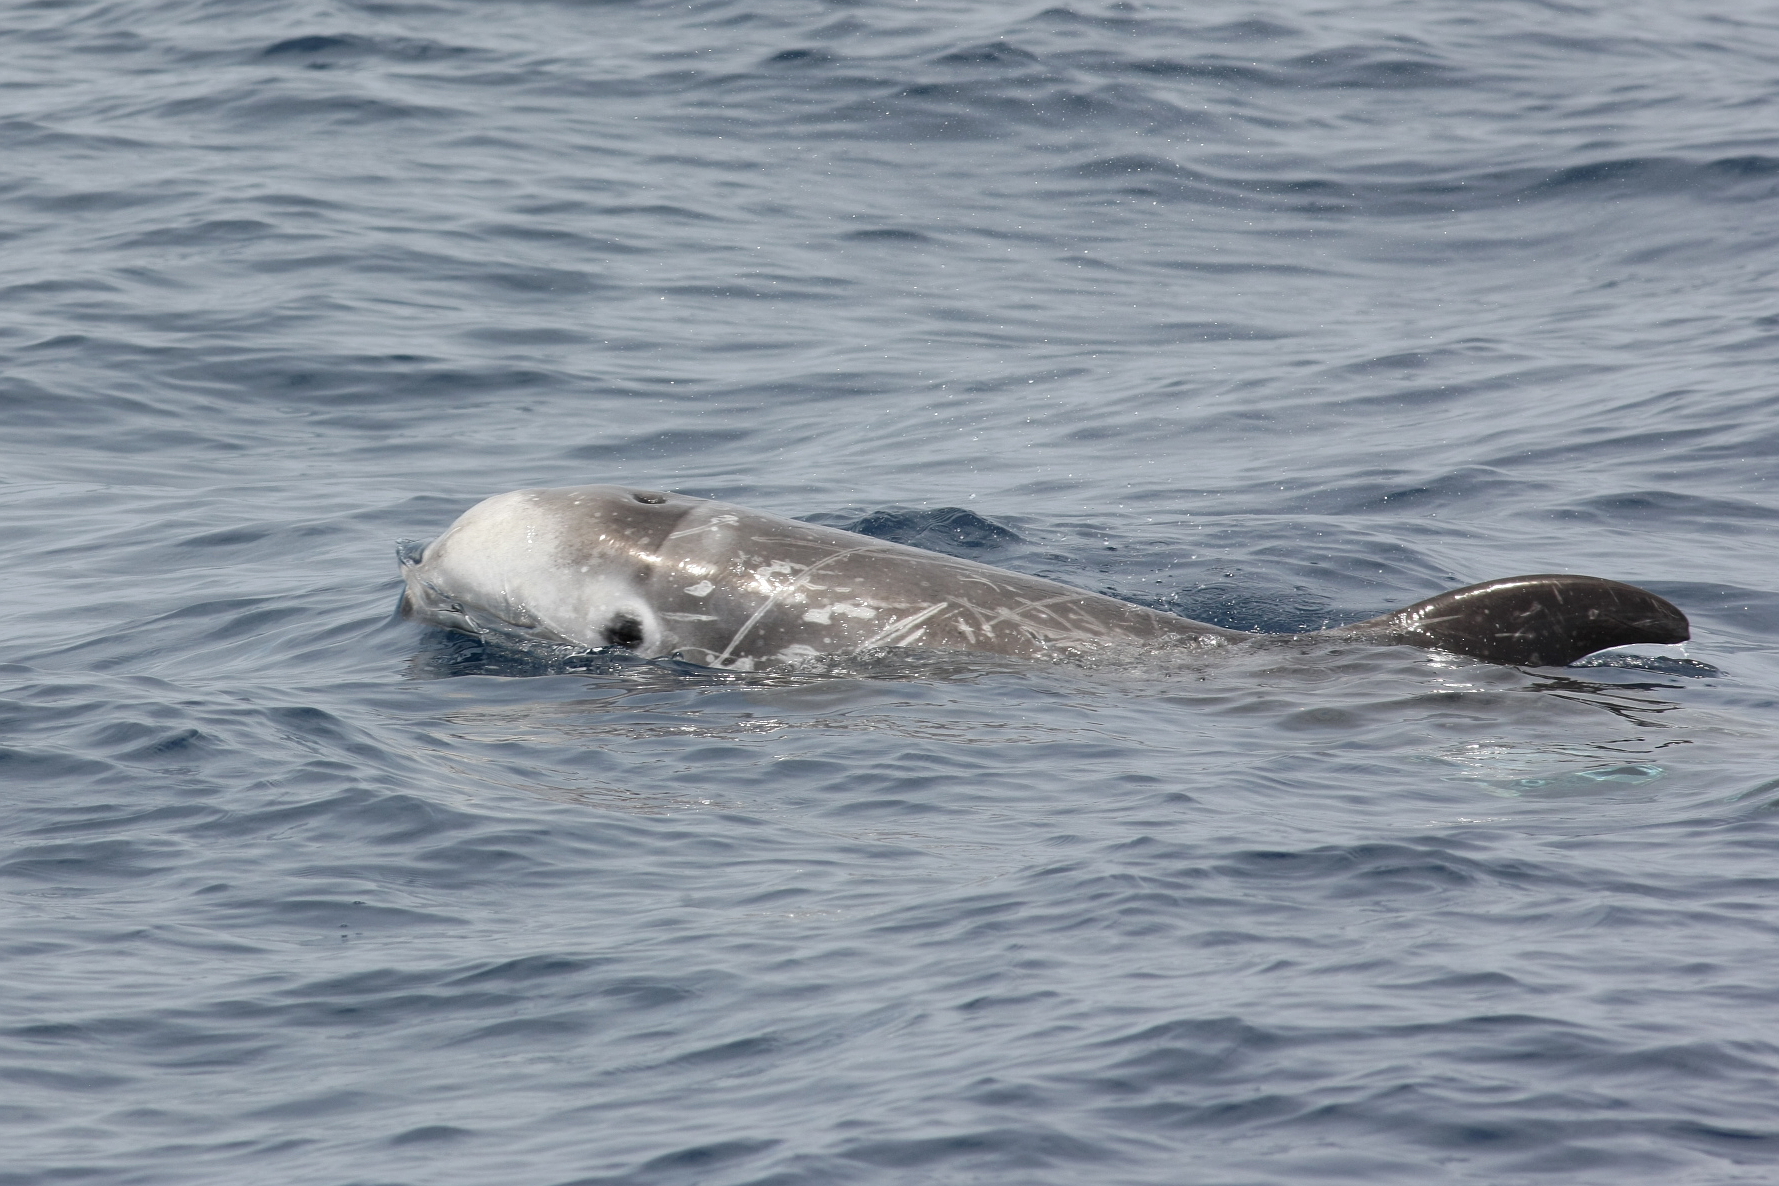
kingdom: Animalia
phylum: Chordata
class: Mammalia
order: Cetacea
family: Delphinidae
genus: Grampus
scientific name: Grampus griseus
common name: Risso's dolphin
